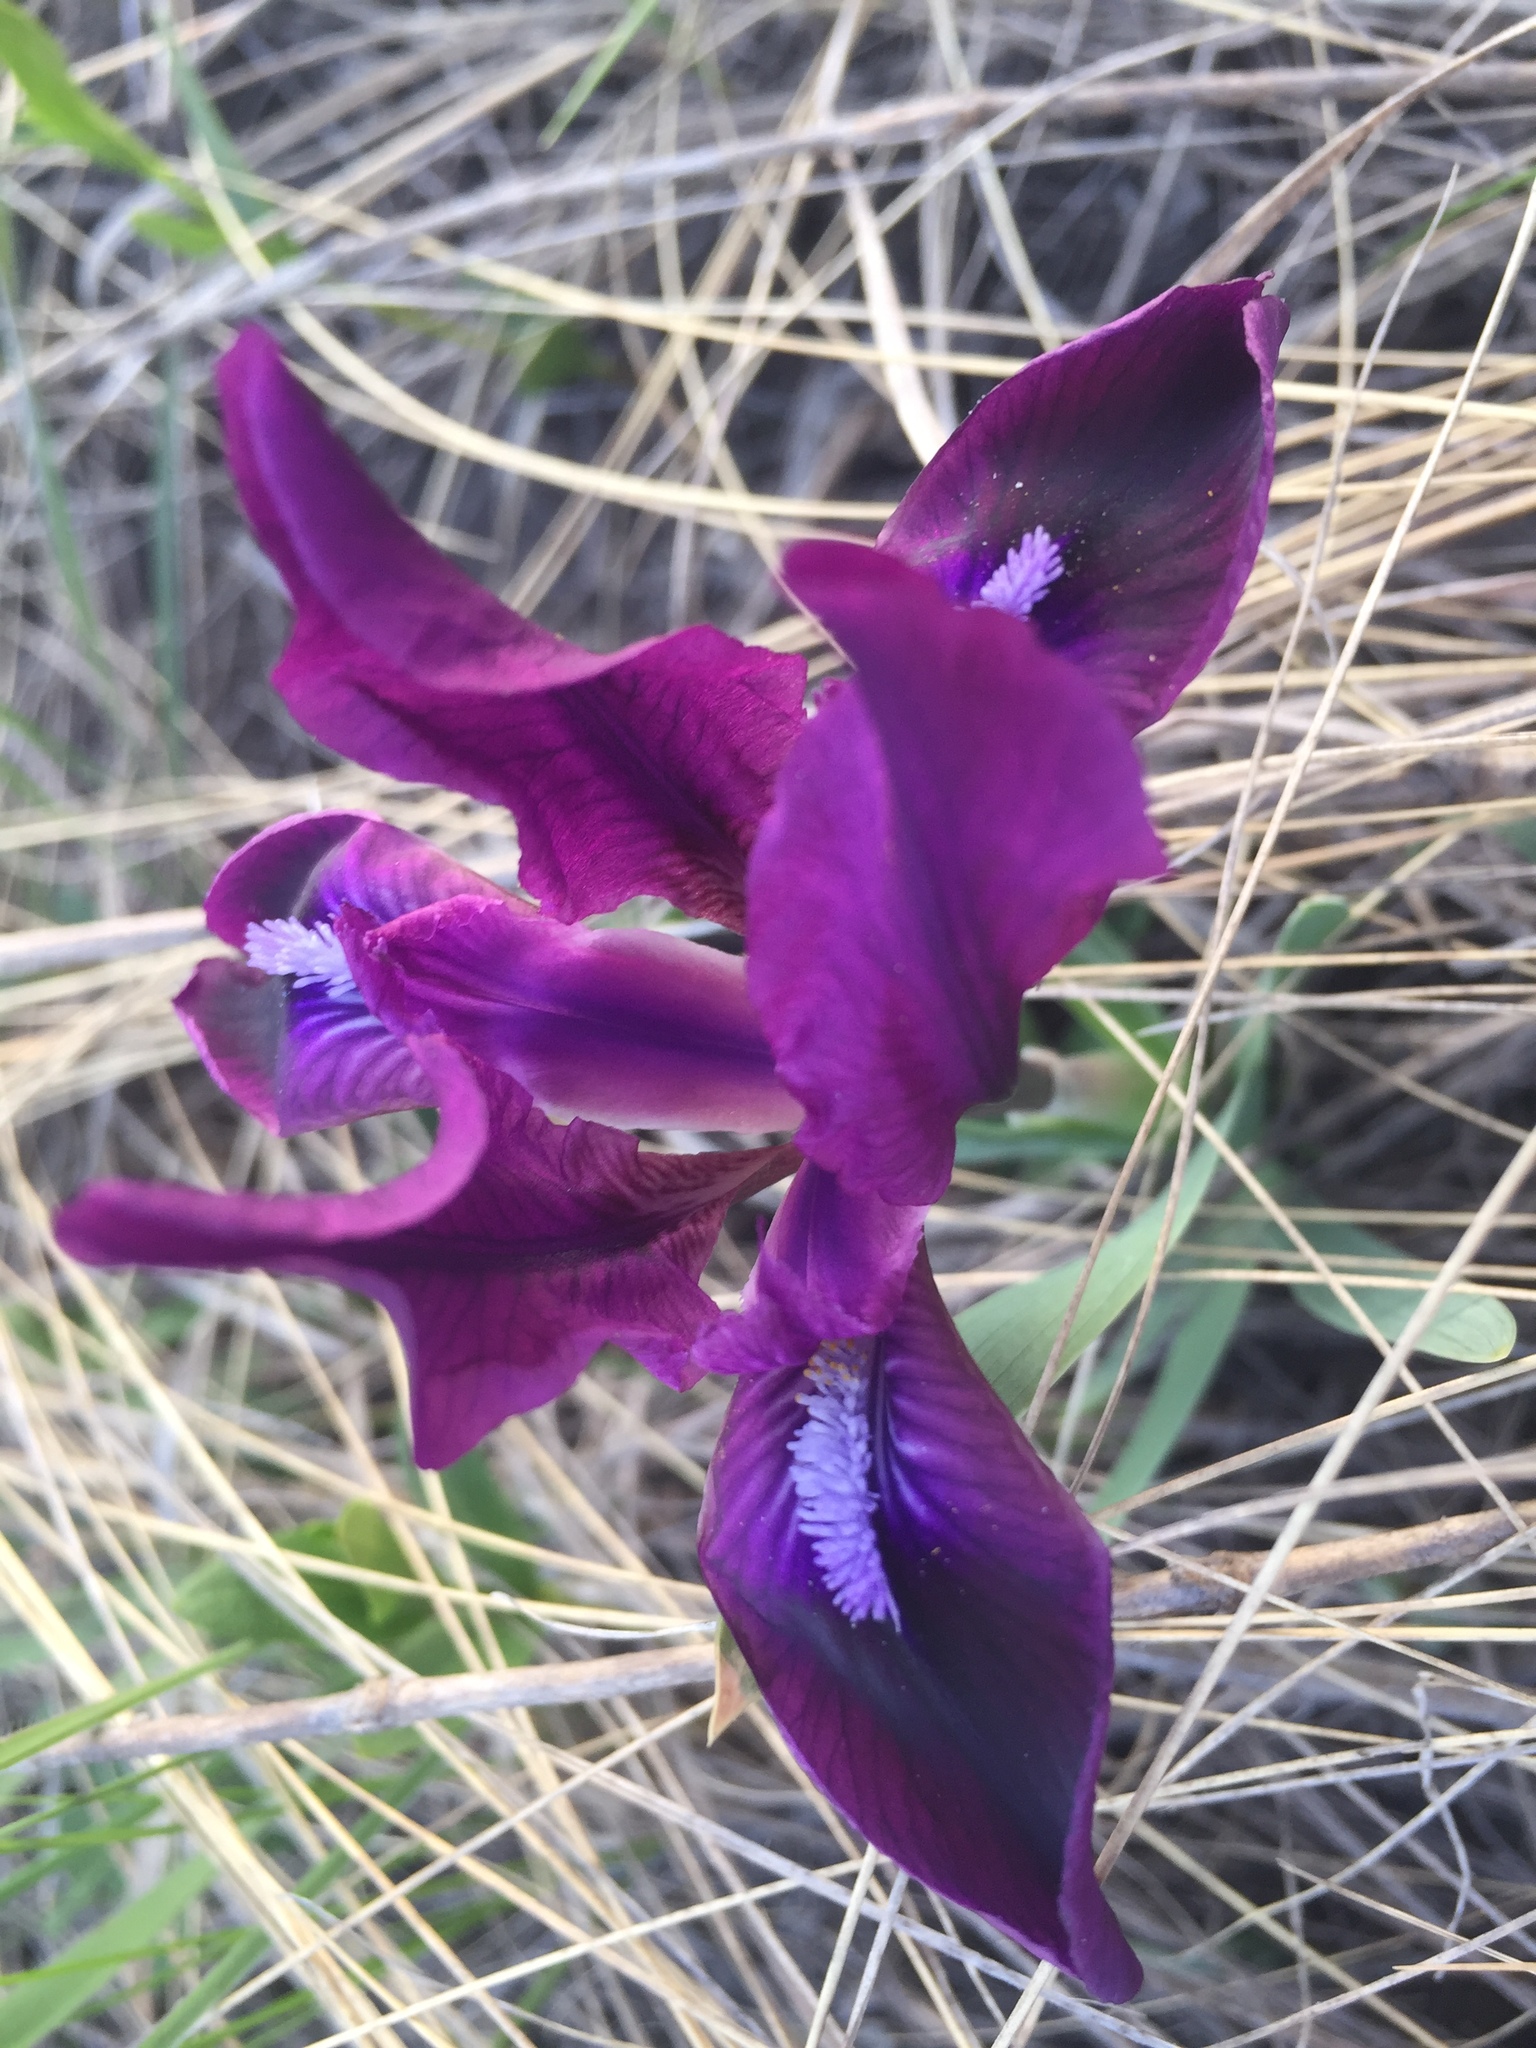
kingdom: Plantae
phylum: Tracheophyta
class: Liliopsida
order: Asparagales
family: Iridaceae
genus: Iris
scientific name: Iris pumila
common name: Dwarf iris
